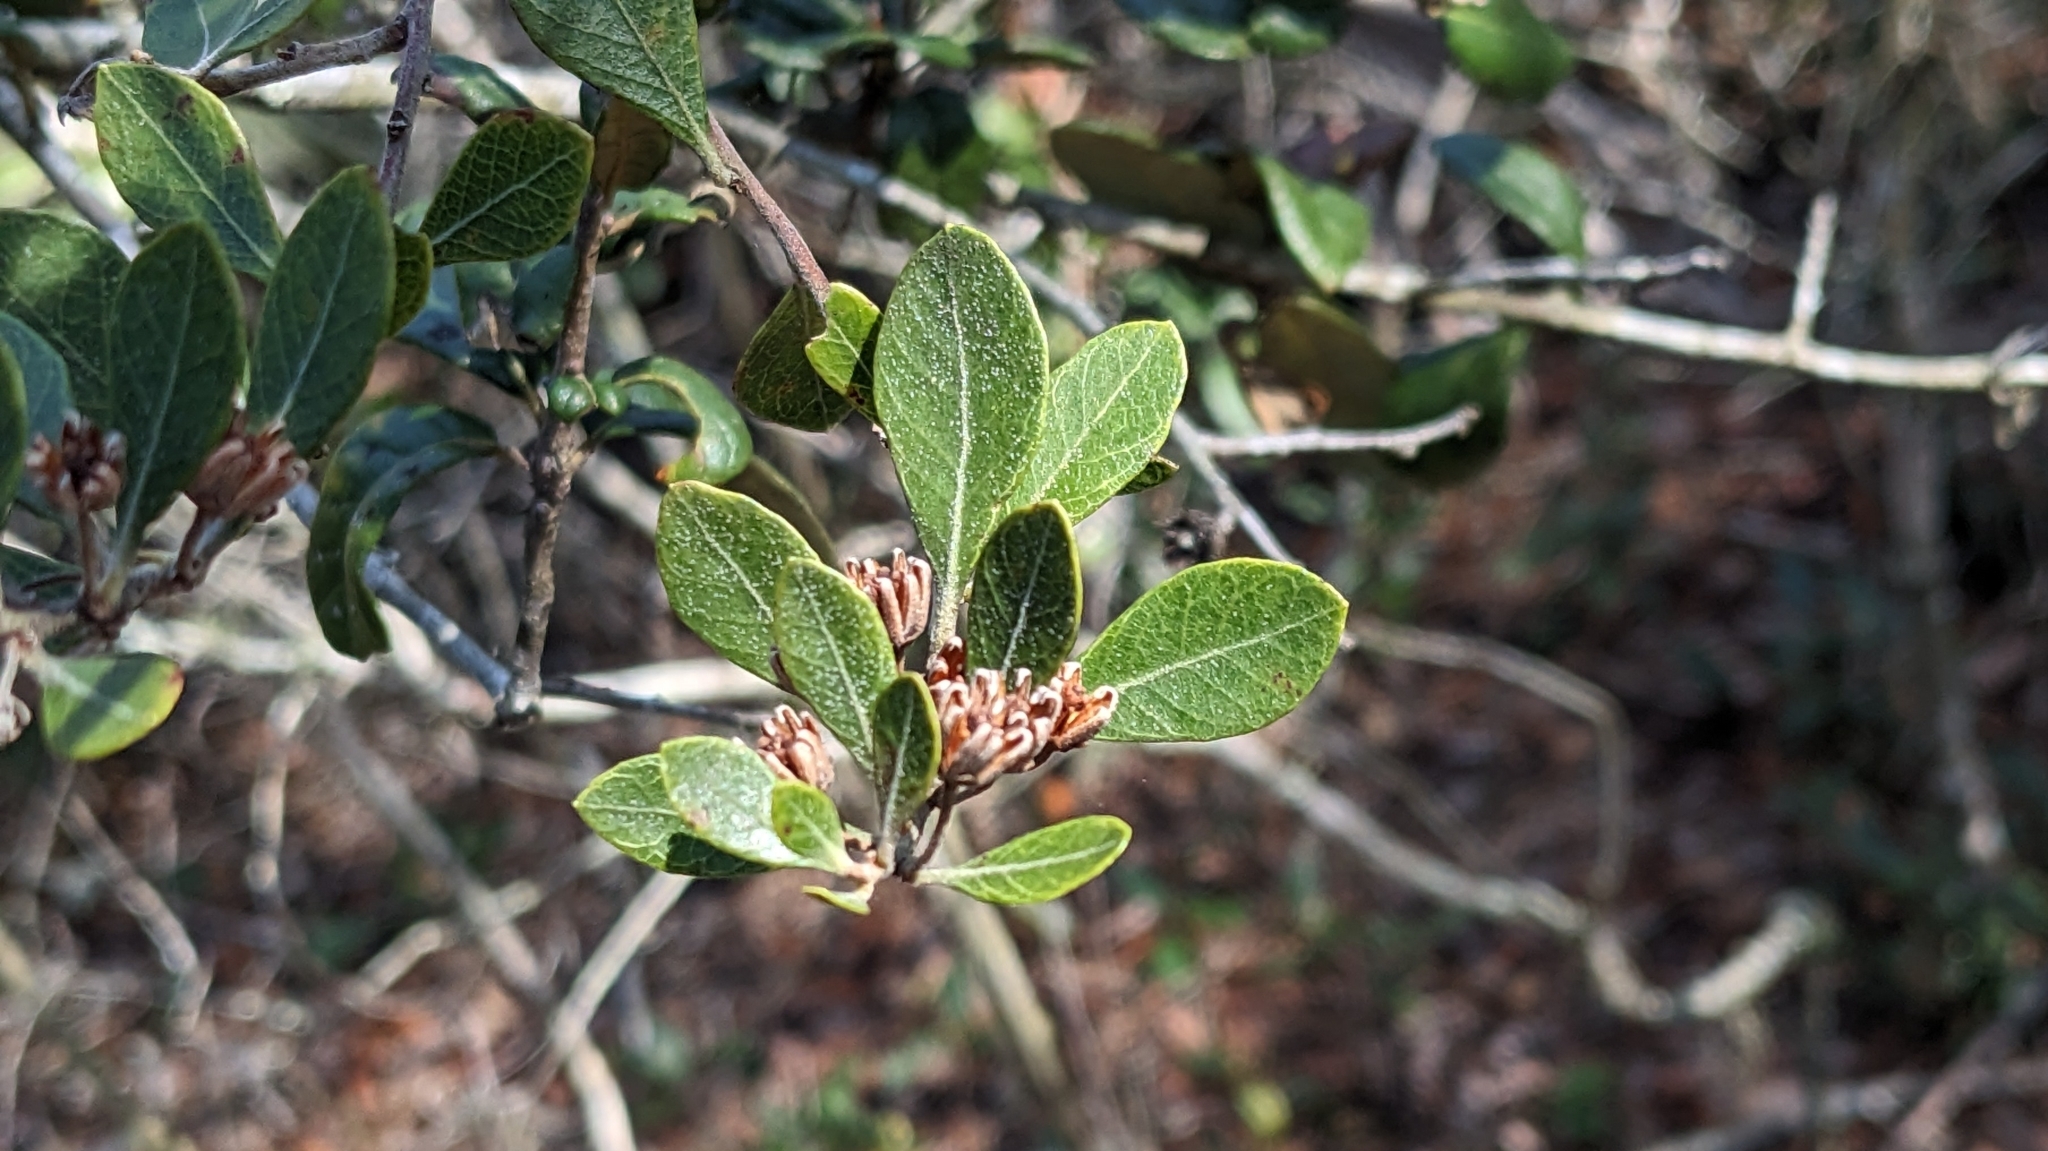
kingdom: Plantae
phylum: Tracheophyta
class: Magnoliopsida
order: Ericales
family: Ericaceae
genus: Lyonia
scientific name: Lyonia fruticosa
